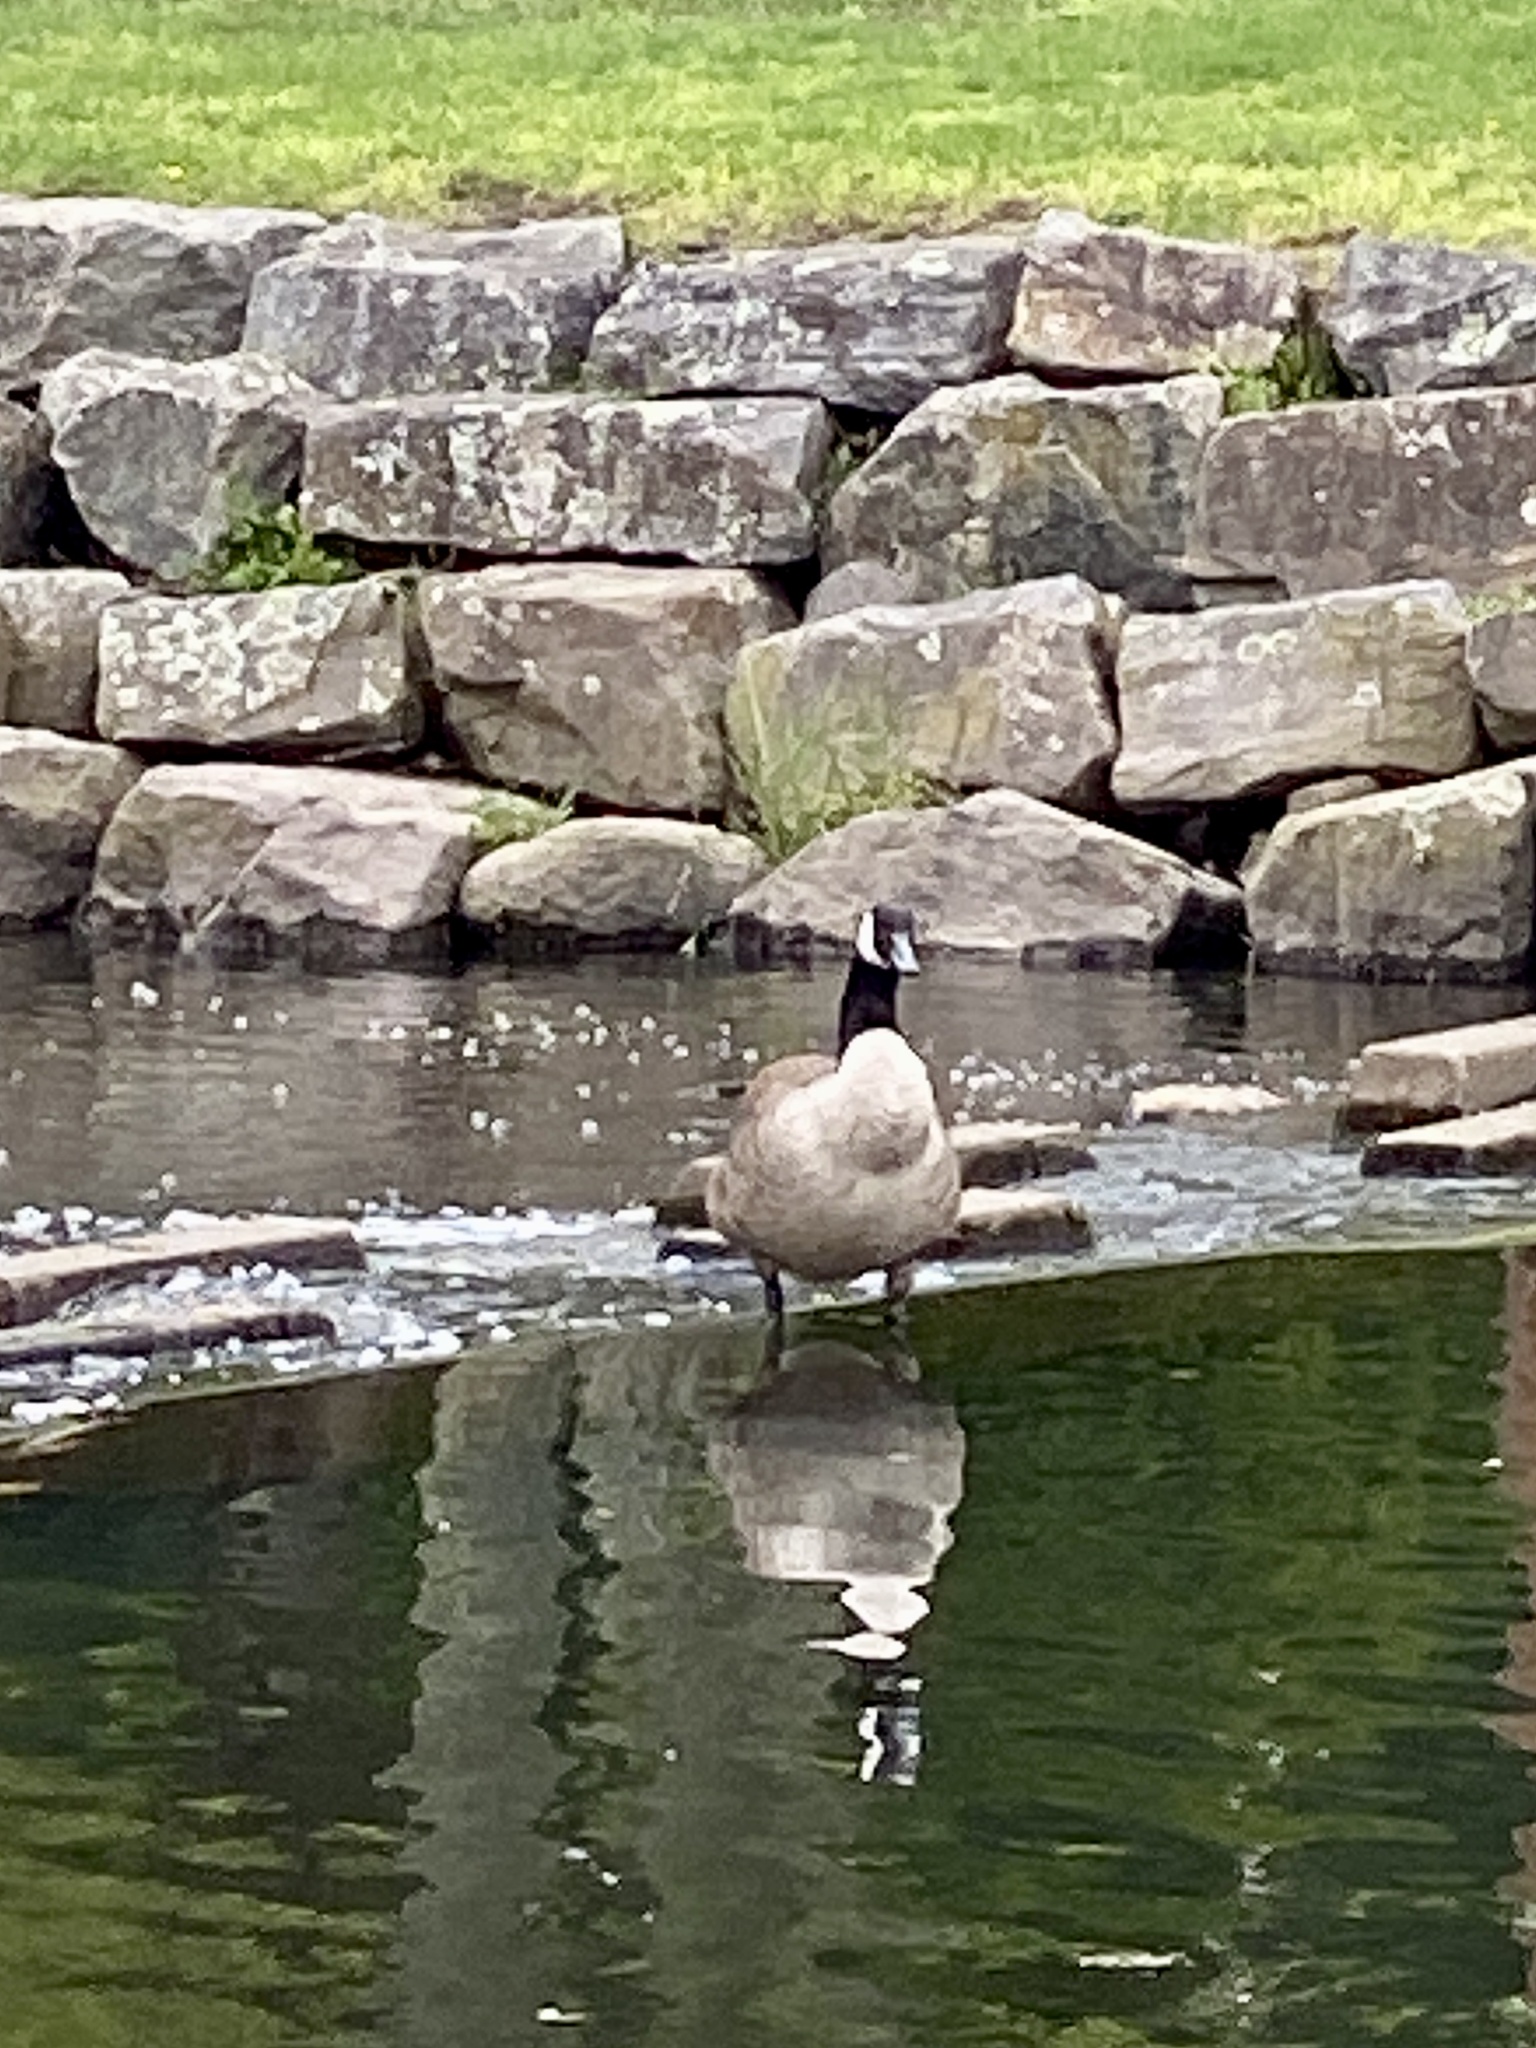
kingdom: Animalia
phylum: Chordata
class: Aves
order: Anseriformes
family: Anatidae
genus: Branta
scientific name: Branta canadensis
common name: Canada goose
